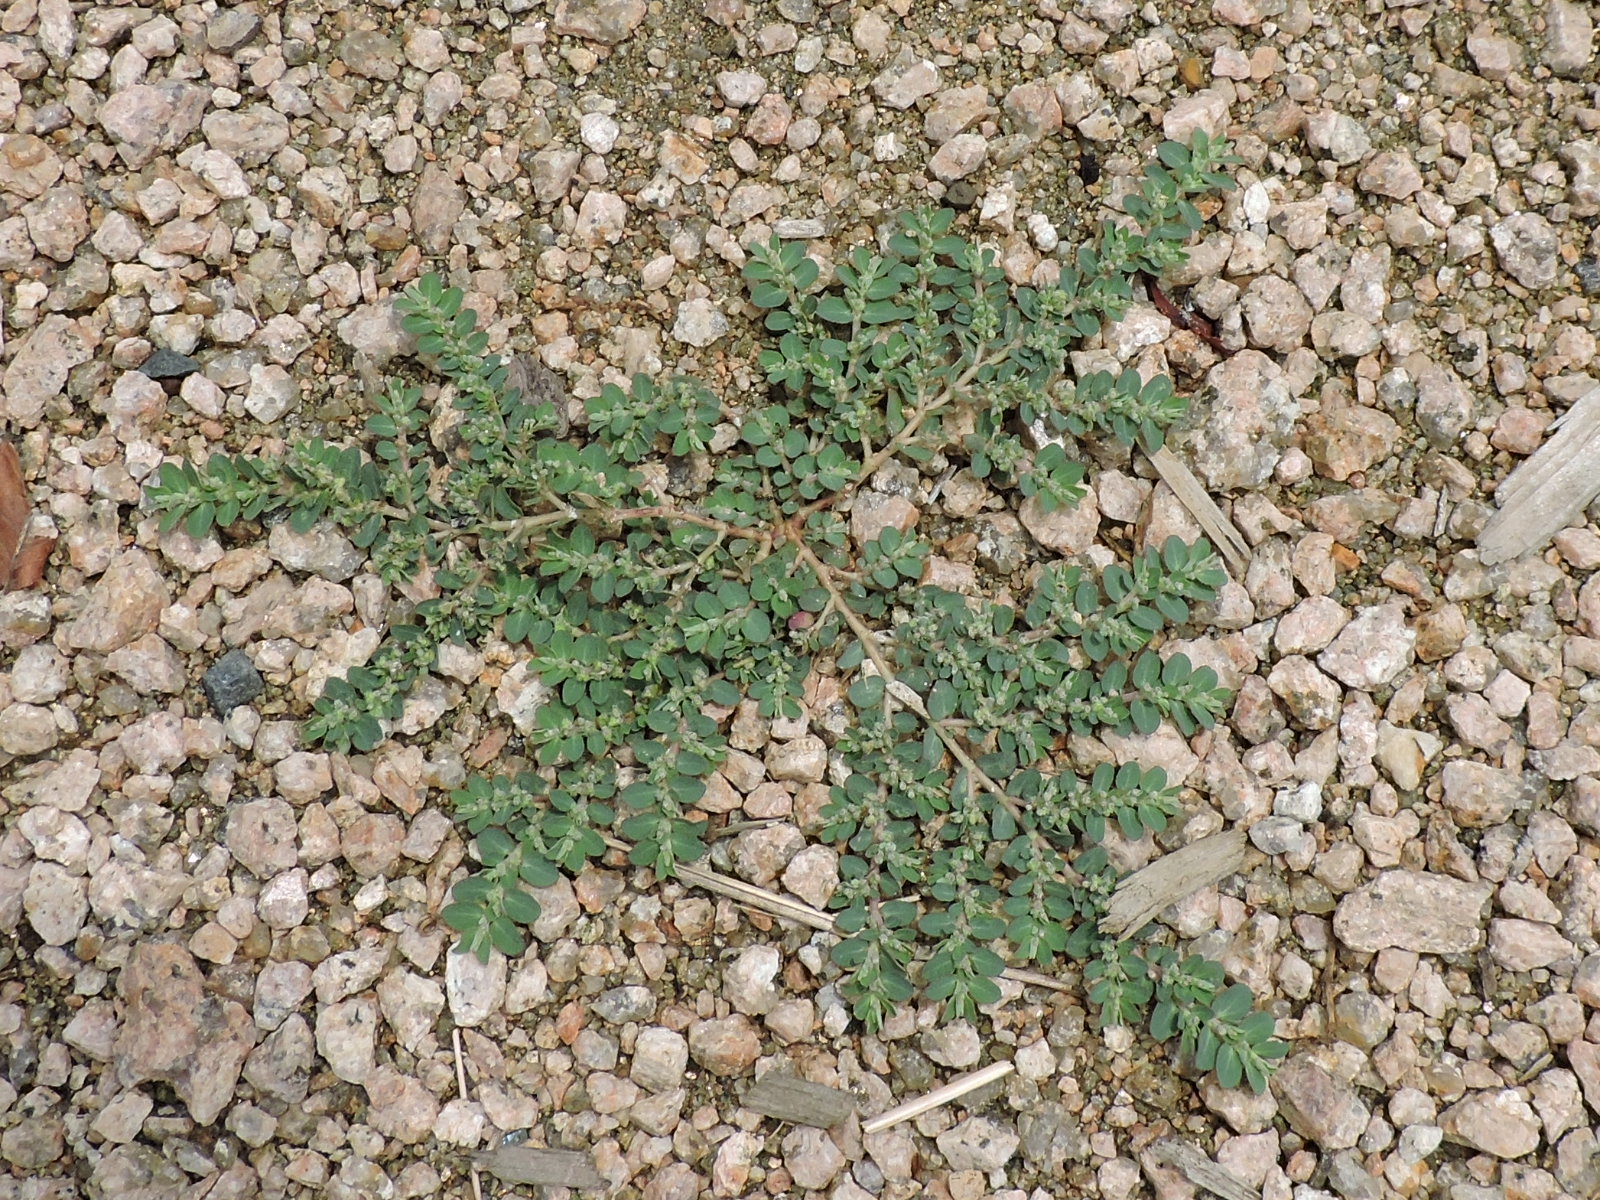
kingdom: Plantae
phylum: Tracheophyta
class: Magnoliopsida
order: Malpighiales
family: Euphorbiaceae
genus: Euphorbia
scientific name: Euphorbia prostrata
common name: Prostrate sandmat
